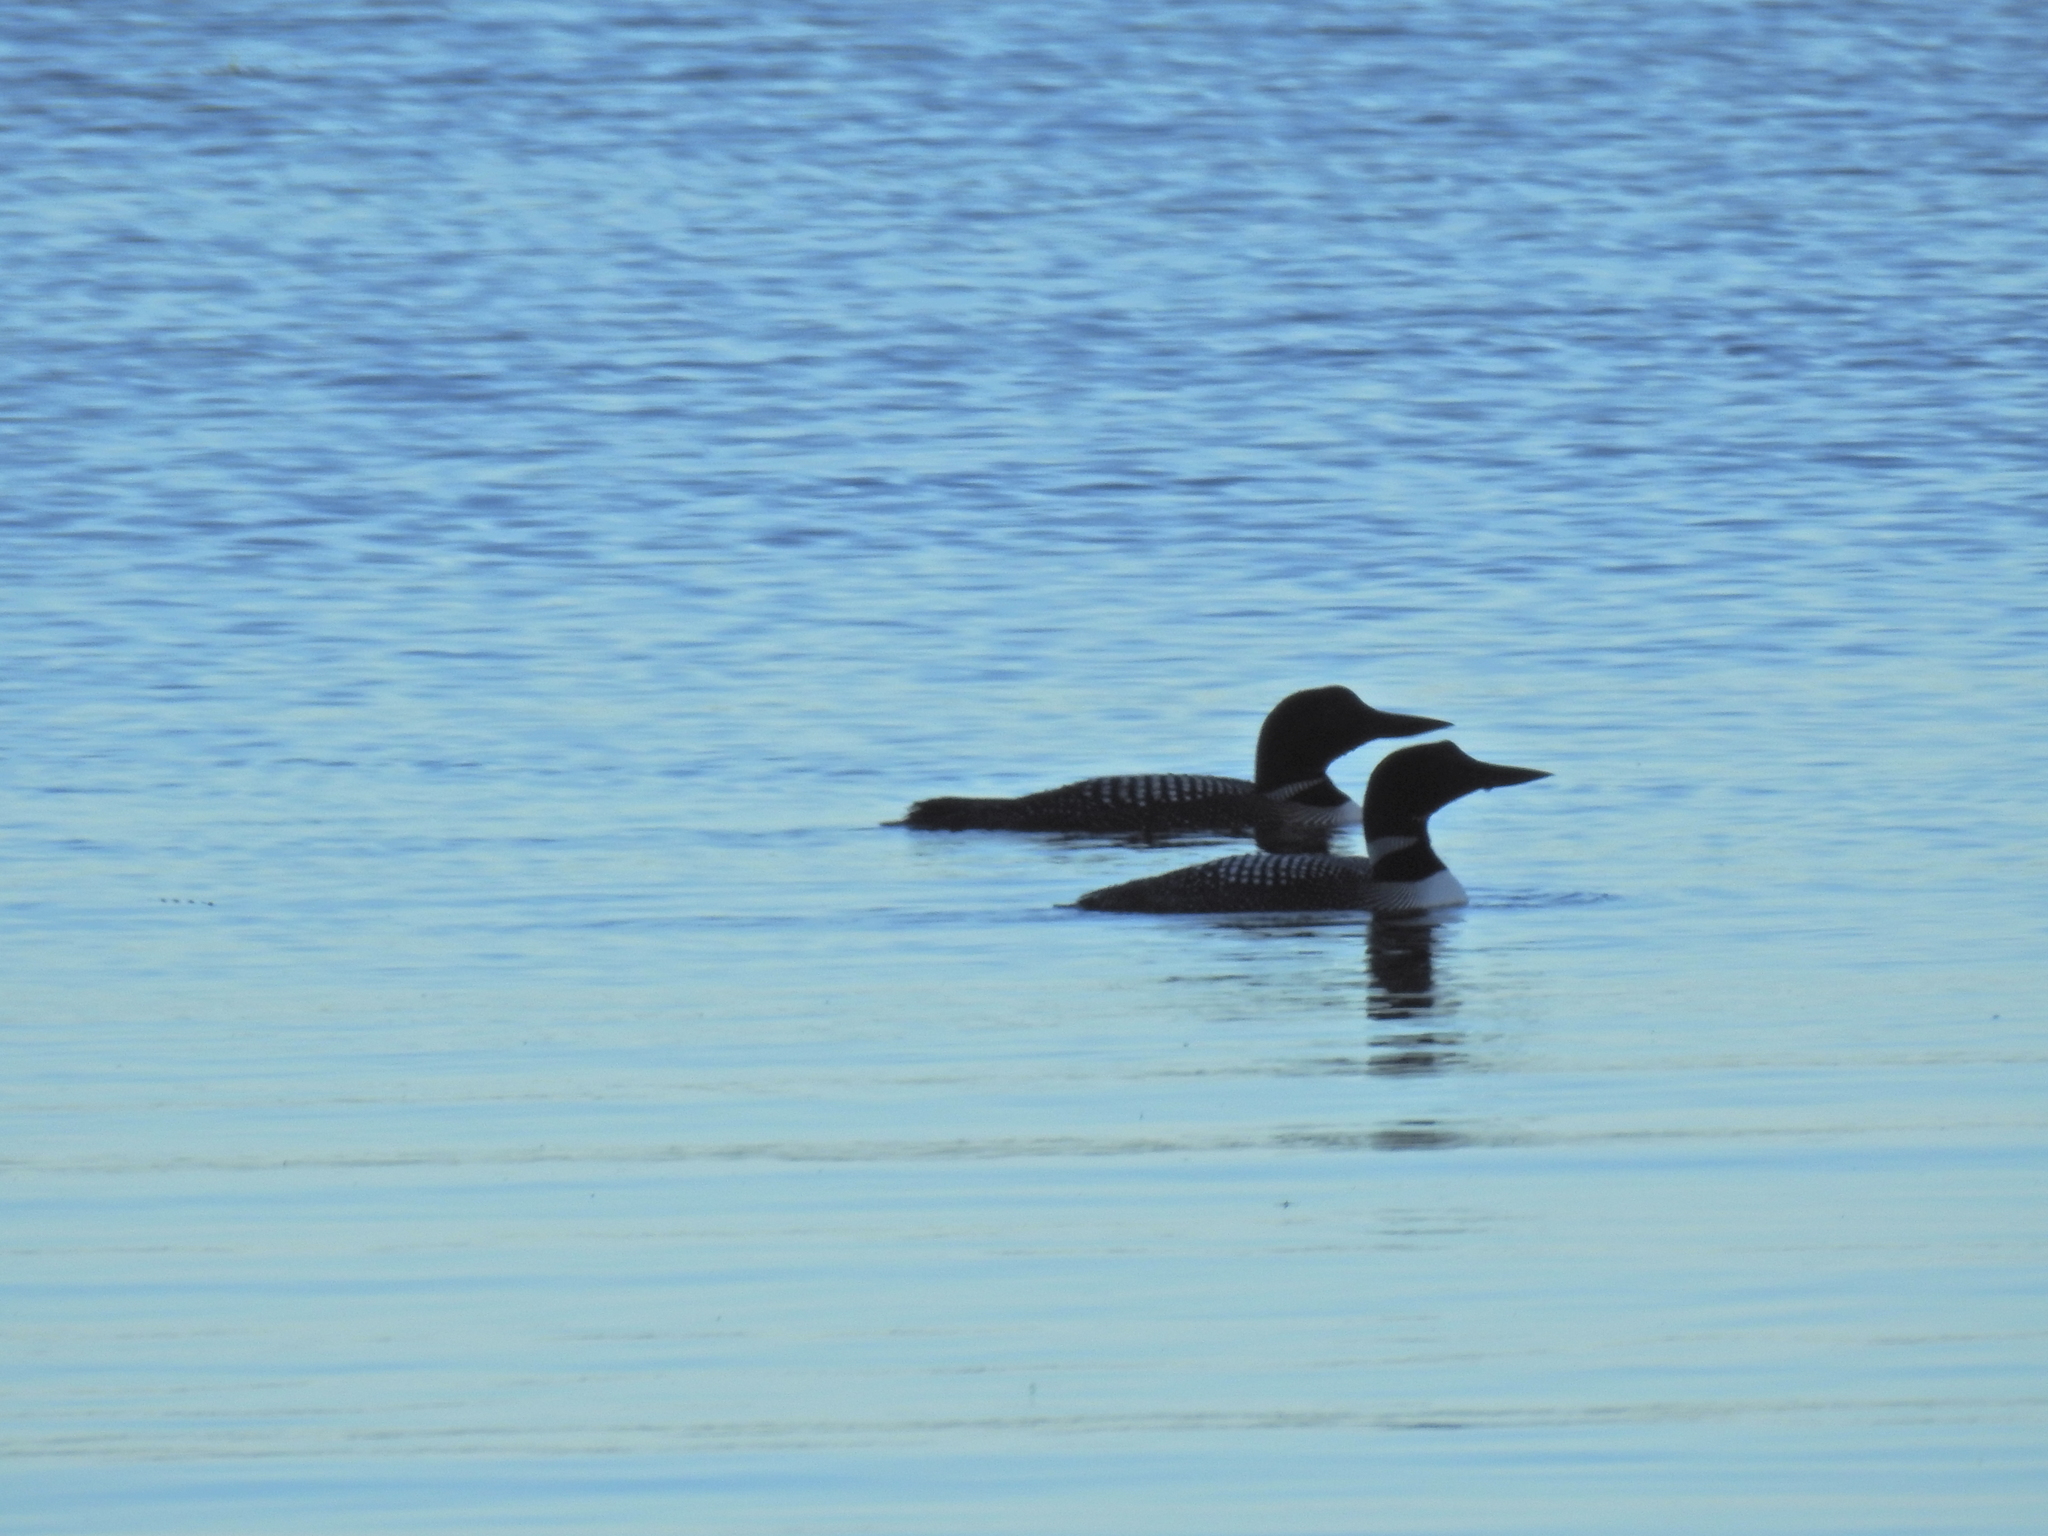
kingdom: Animalia
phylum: Chordata
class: Aves
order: Gaviiformes
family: Gaviidae
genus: Gavia
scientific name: Gavia immer
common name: Common loon
